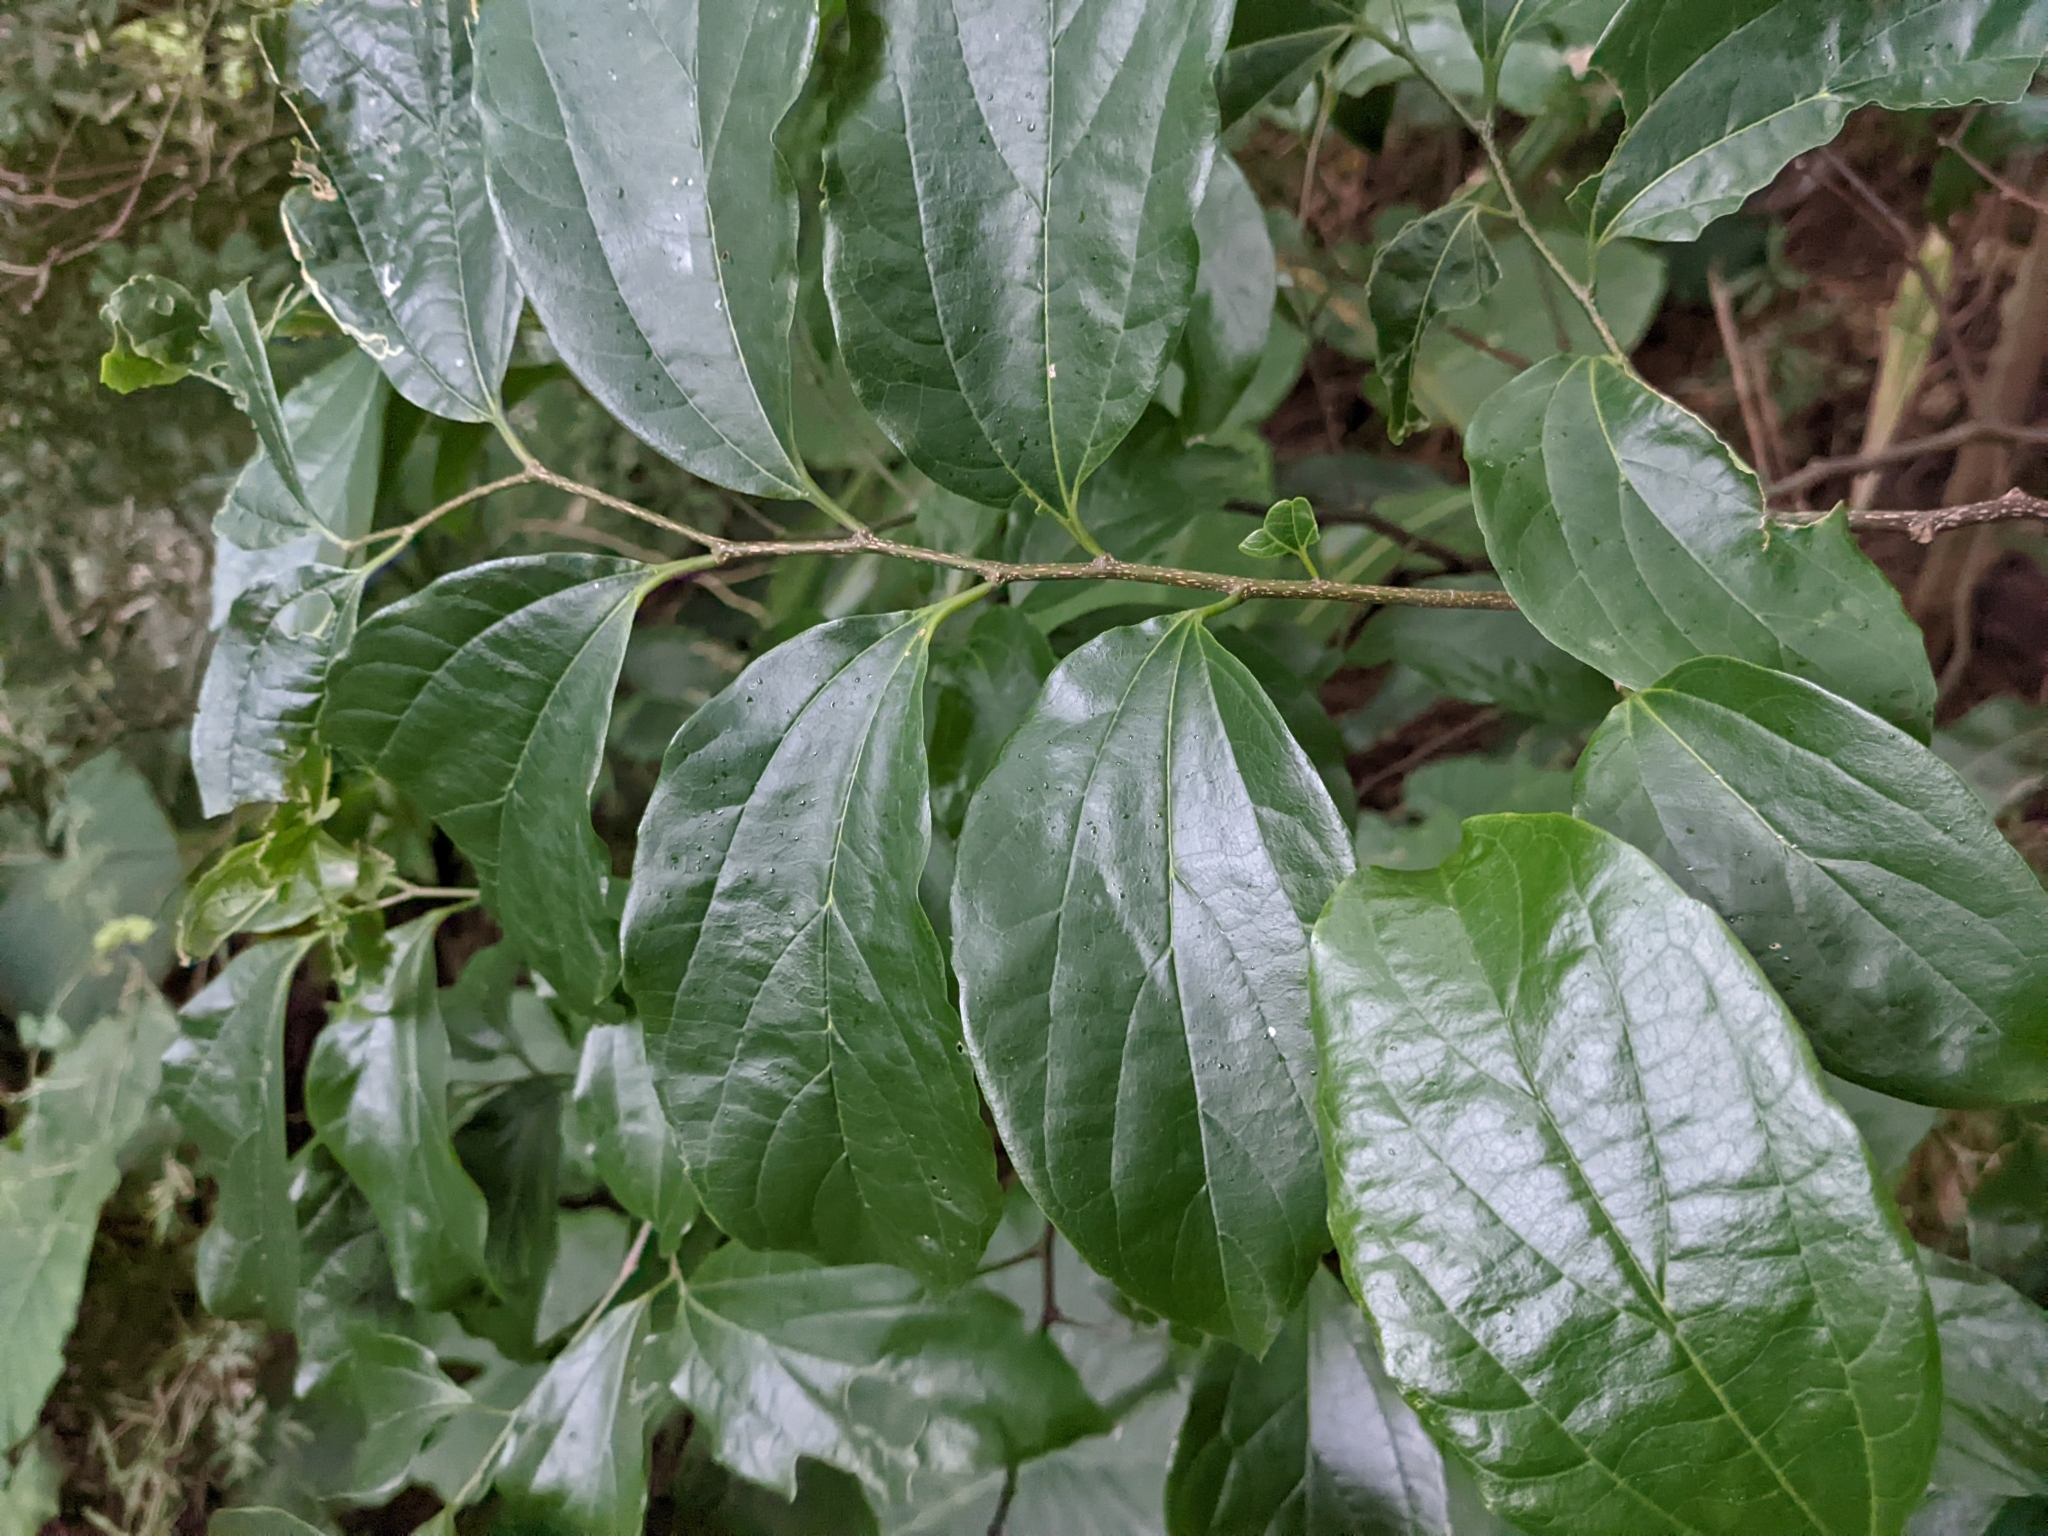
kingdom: Plantae
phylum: Tracheophyta
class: Magnoliopsida
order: Rosales
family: Cannabaceae
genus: Celtis
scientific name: Celtis tetrandra
